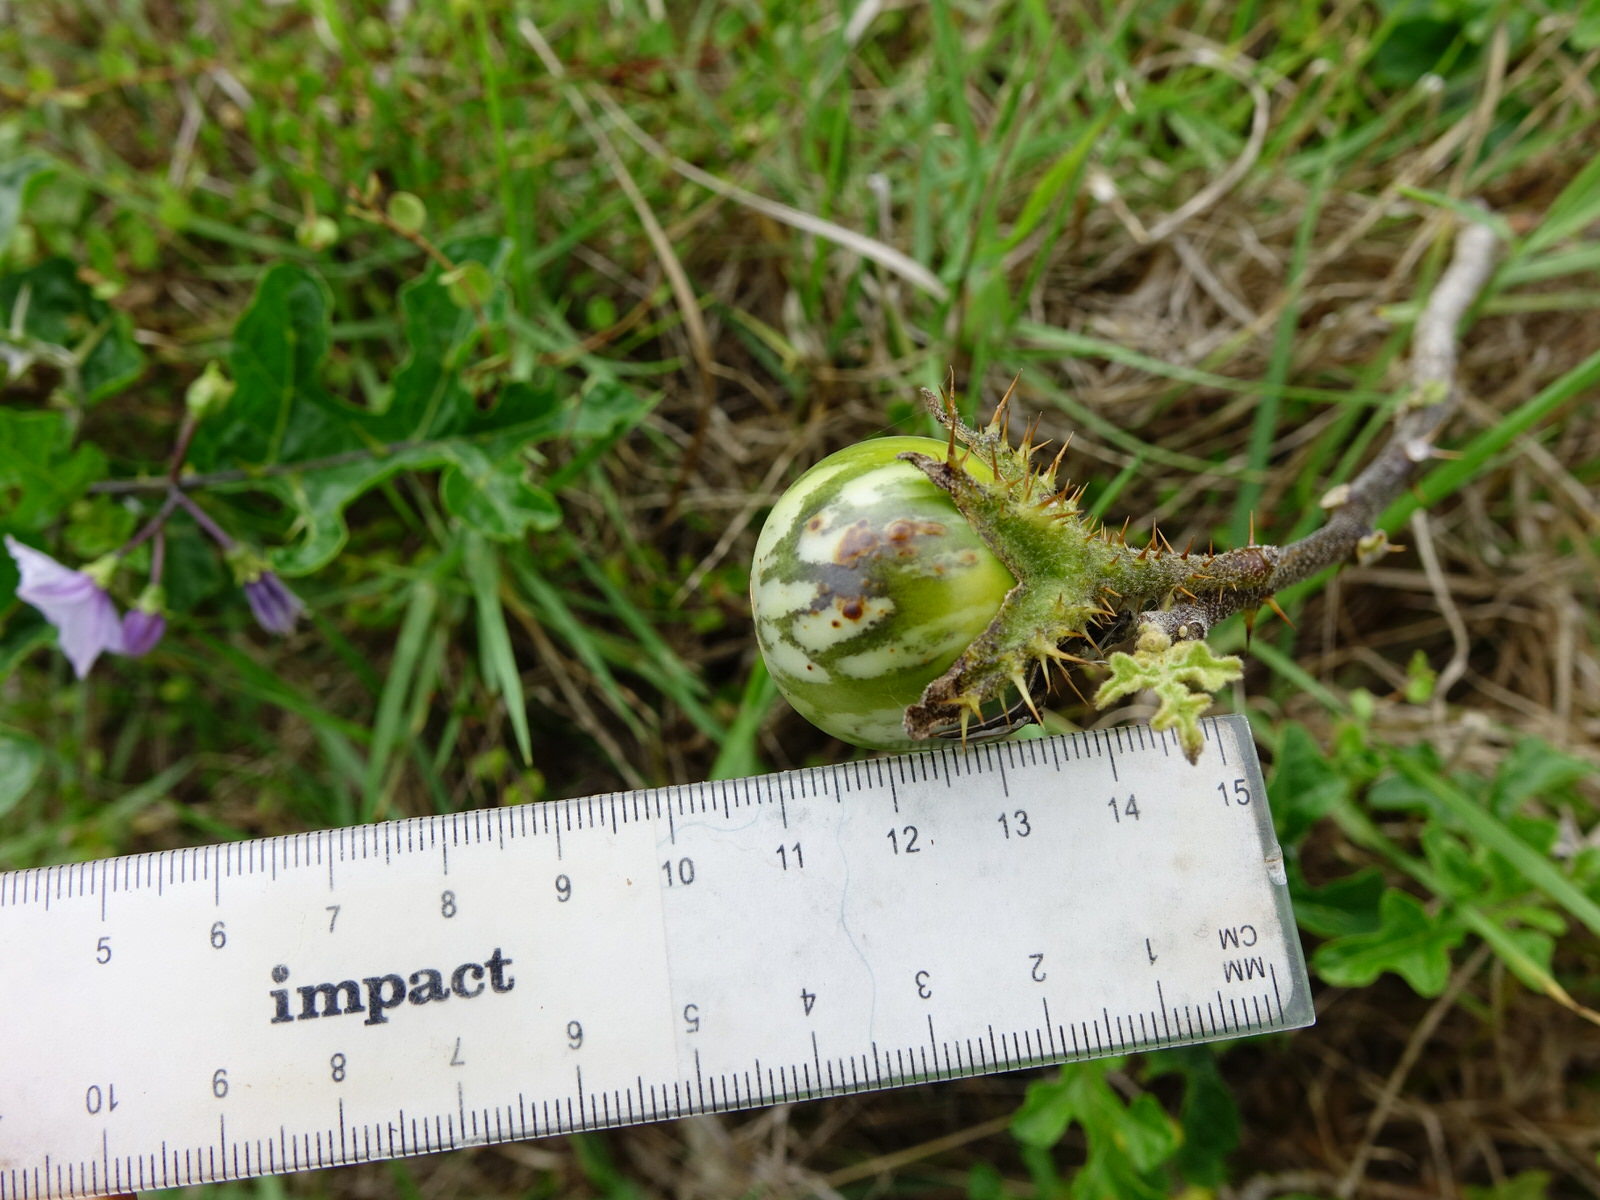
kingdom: Plantae
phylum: Tracheophyta
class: Magnoliopsida
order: Solanales
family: Solanaceae
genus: Solanum
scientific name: Solanum linnaeanum
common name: Nightshade
